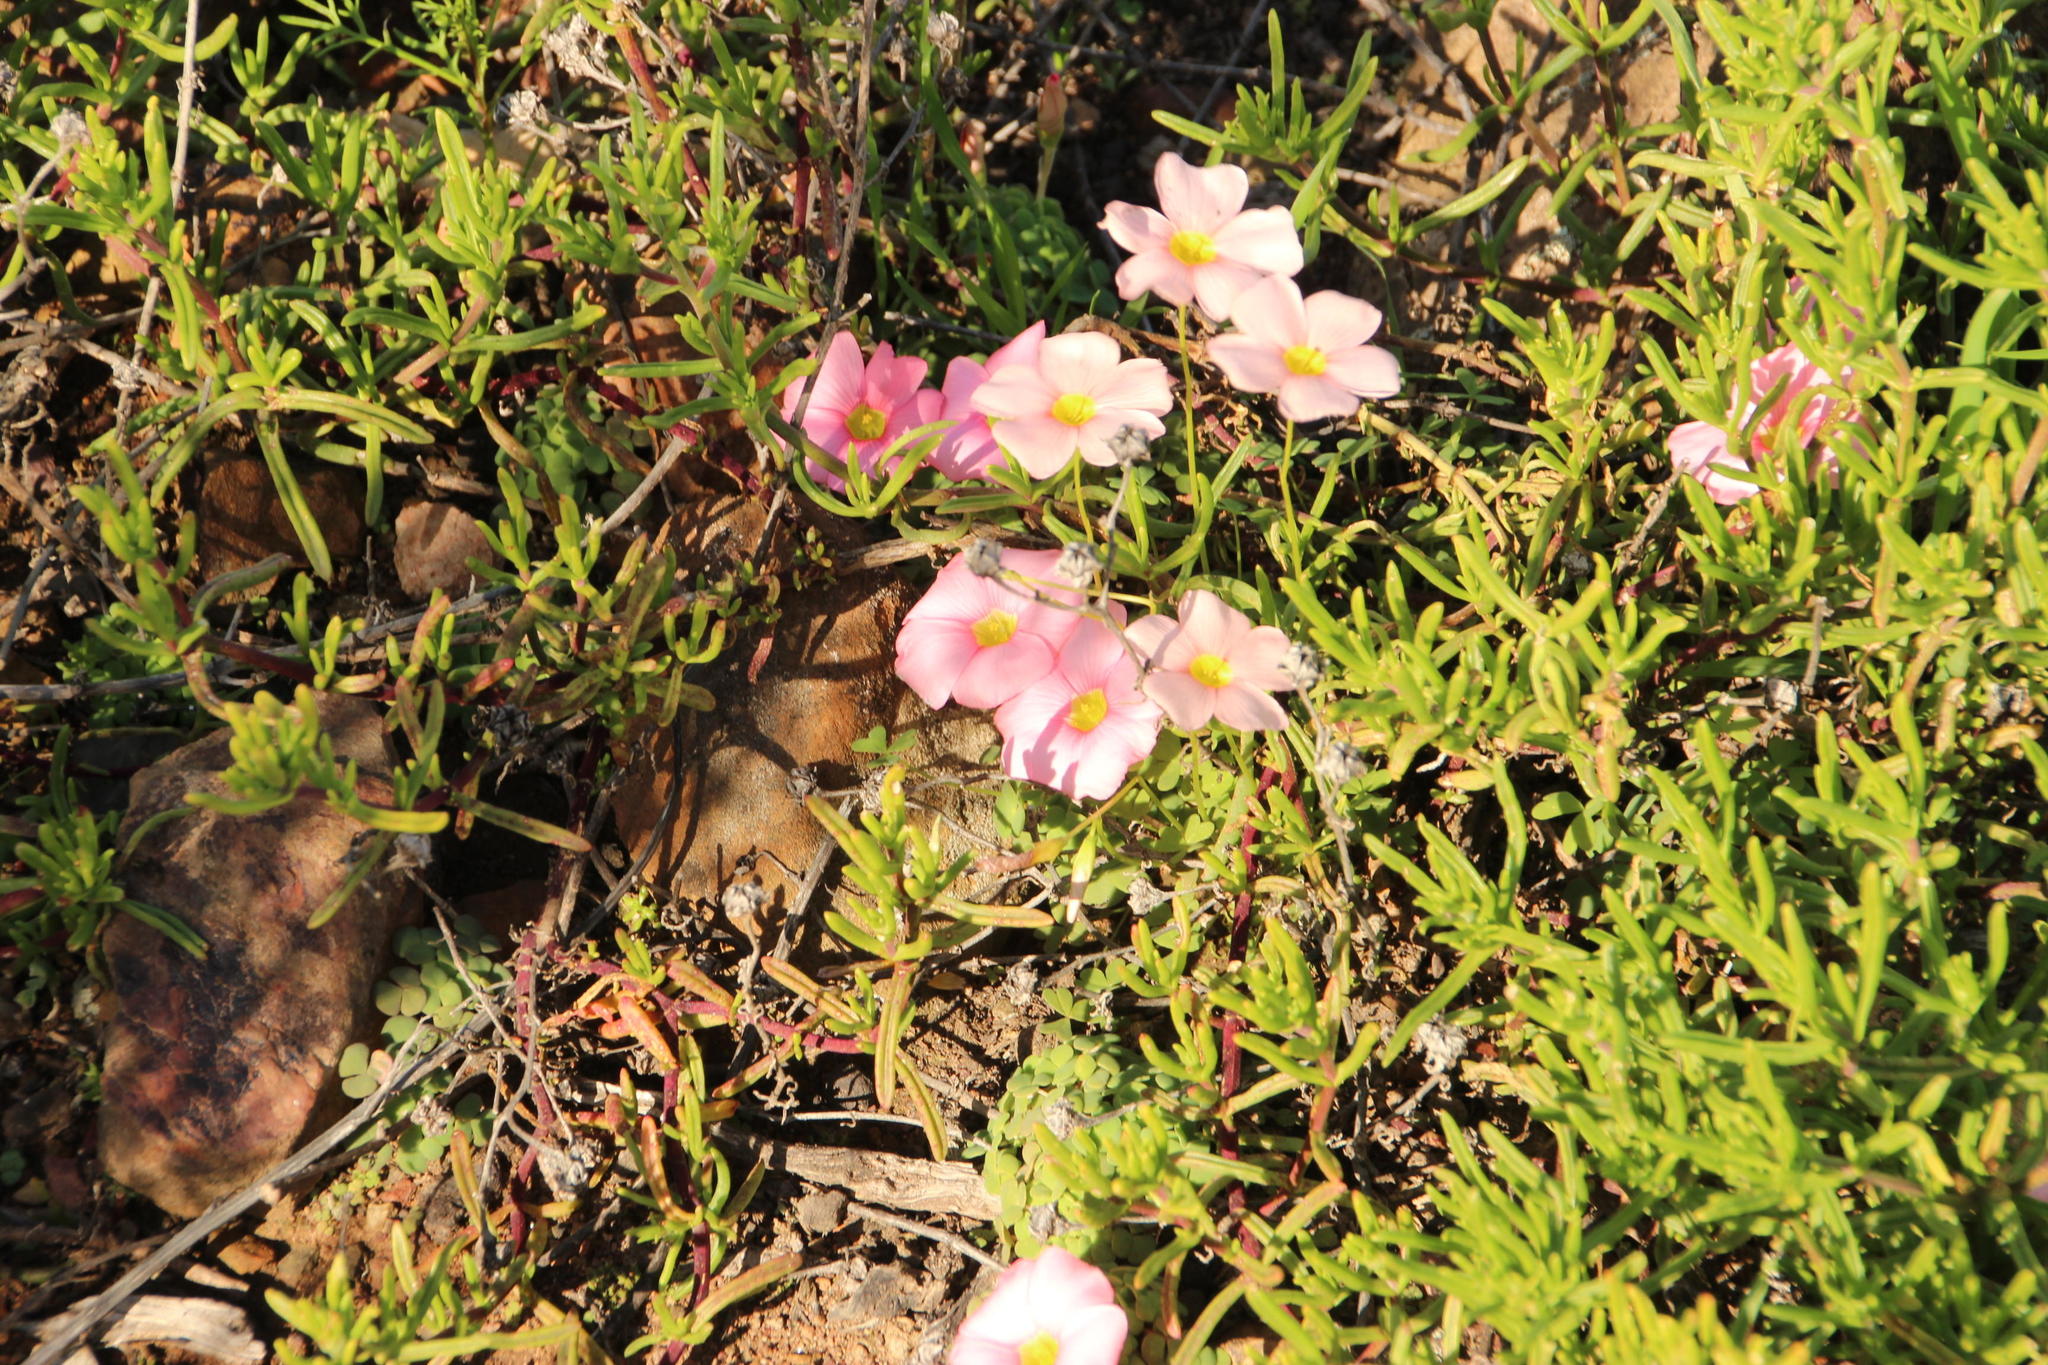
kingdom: Plantae
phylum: Tracheophyta
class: Magnoliopsida
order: Oxalidales
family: Oxalidaceae
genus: Oxalis
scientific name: Oxalis convexula
